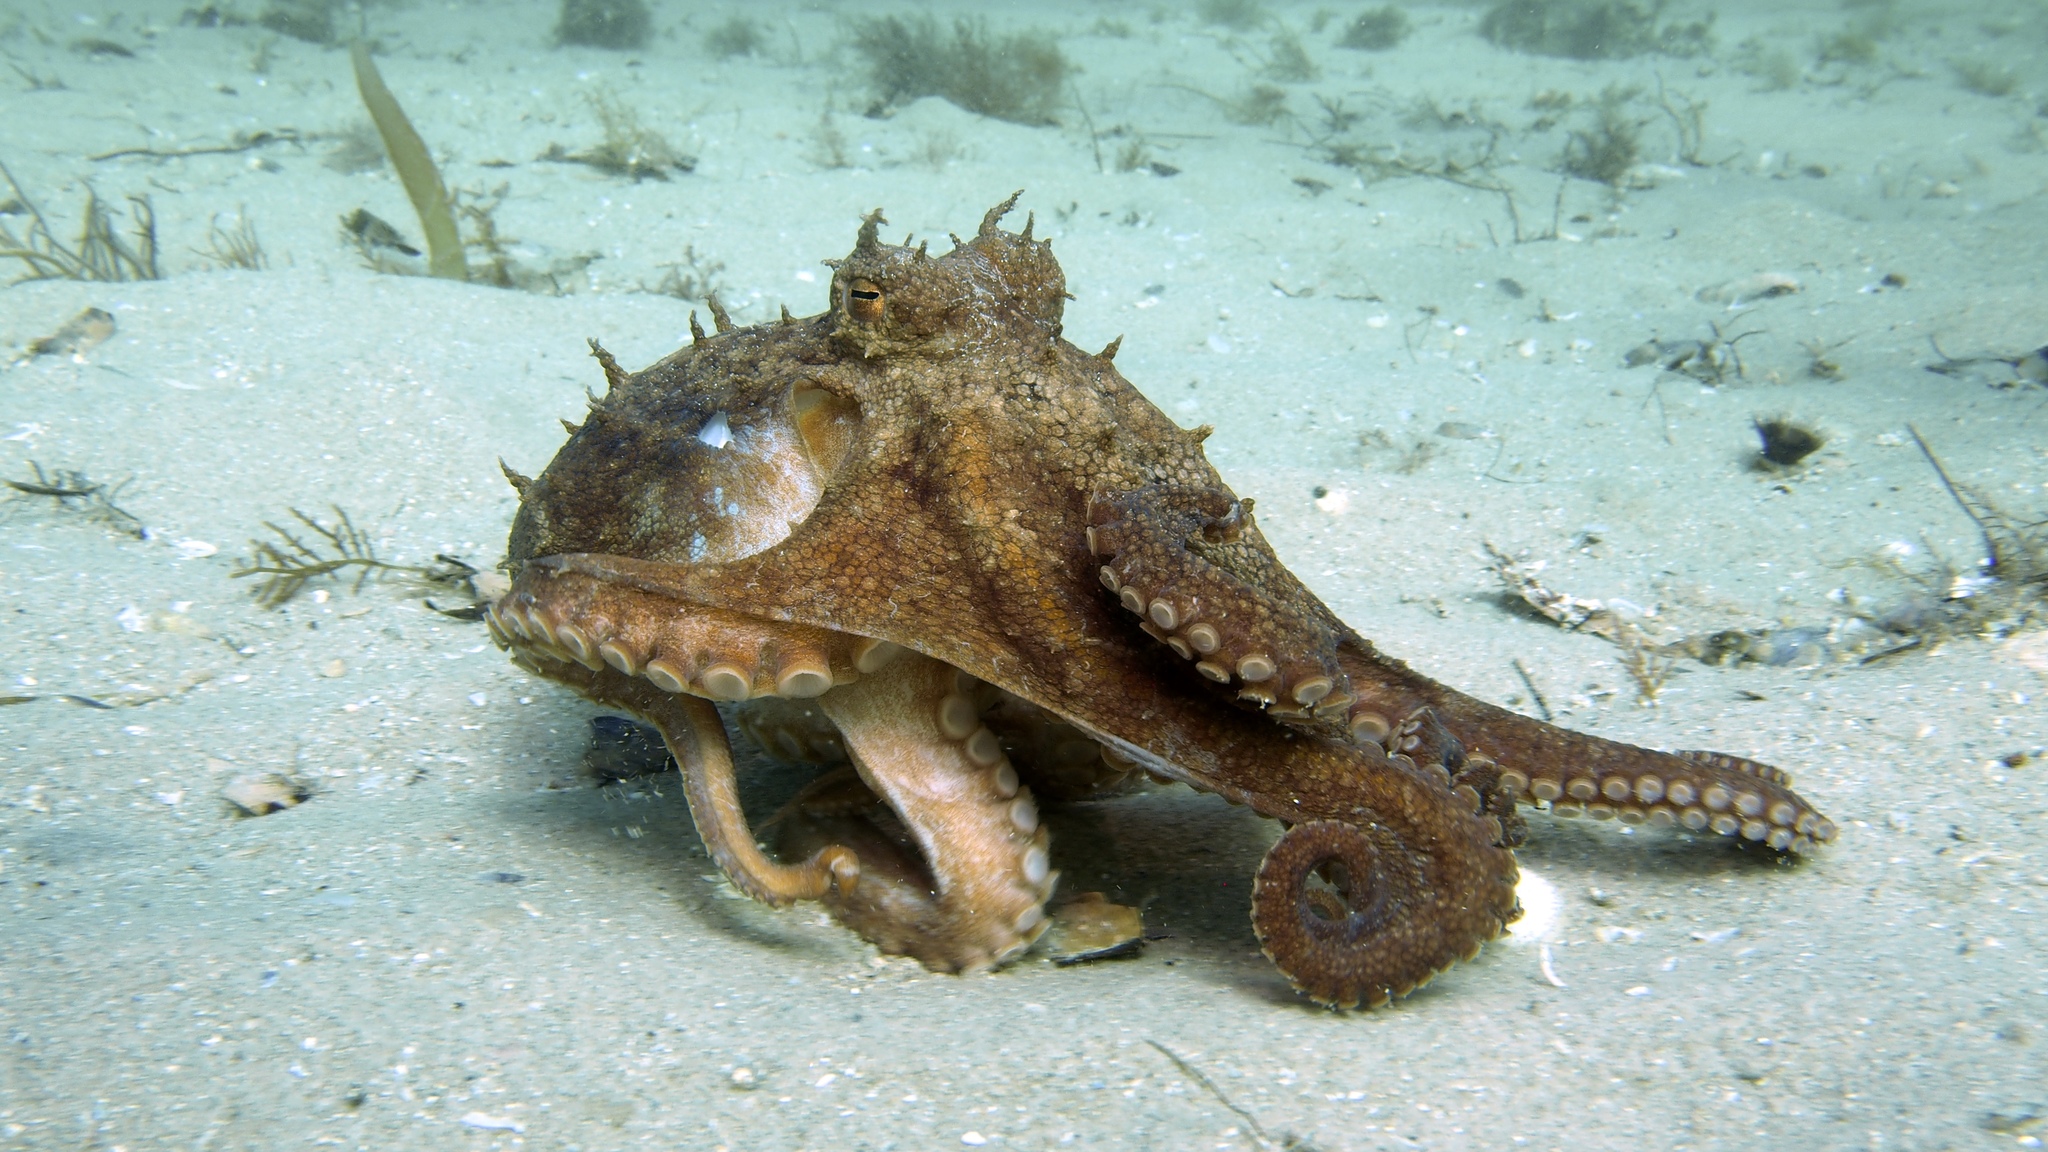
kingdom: Animalia
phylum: Mollusca
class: Cephalopoda
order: Octopoda
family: Octopodidae
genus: Octopus
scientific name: Octopus pallidus
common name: Pale octopus
